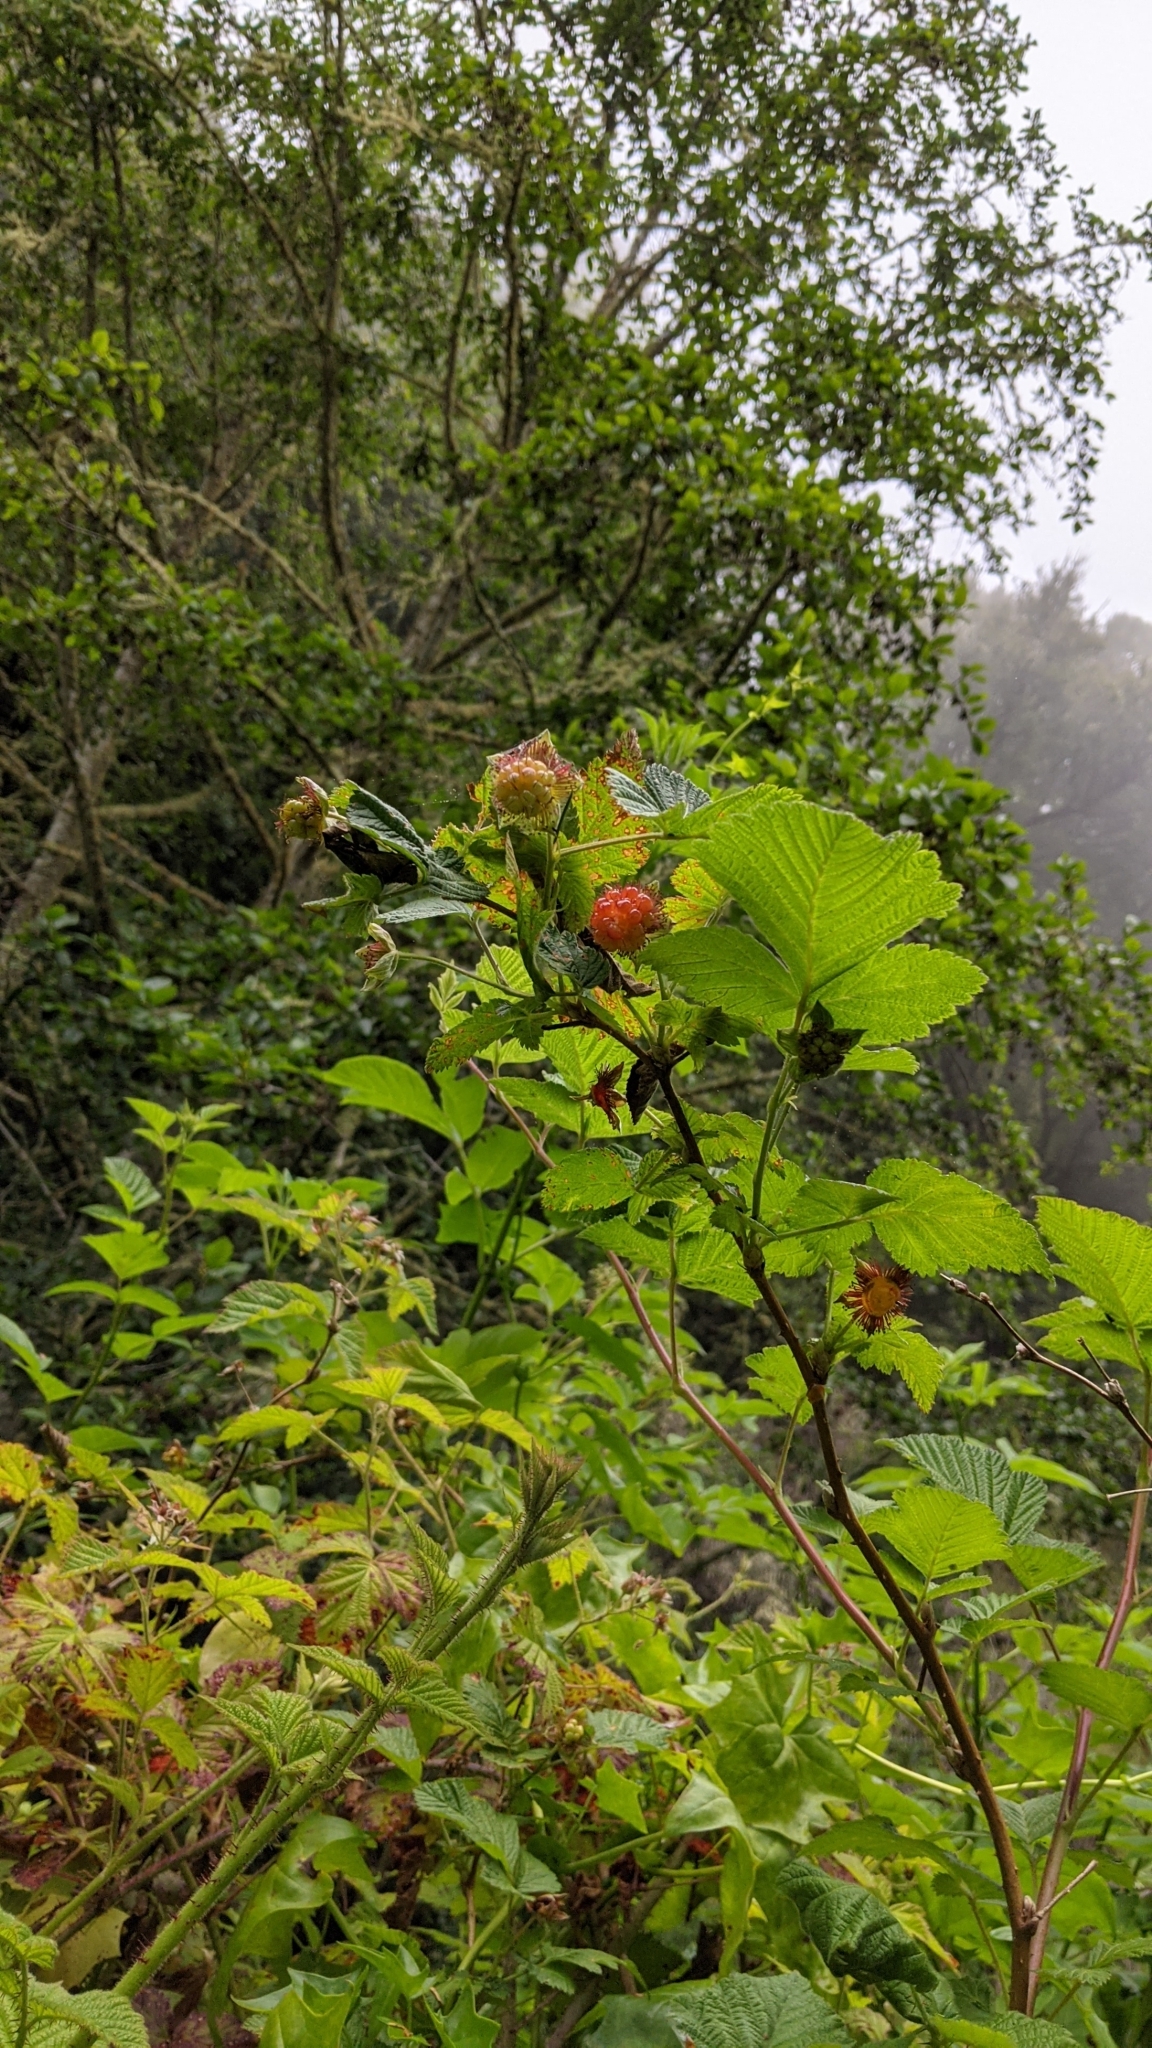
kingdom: Plantae
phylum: Tracheophyta
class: Magnoliopsida
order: Rosales
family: Rosaceae
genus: Rubus
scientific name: Rubus spectabilis
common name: Salmonberry
